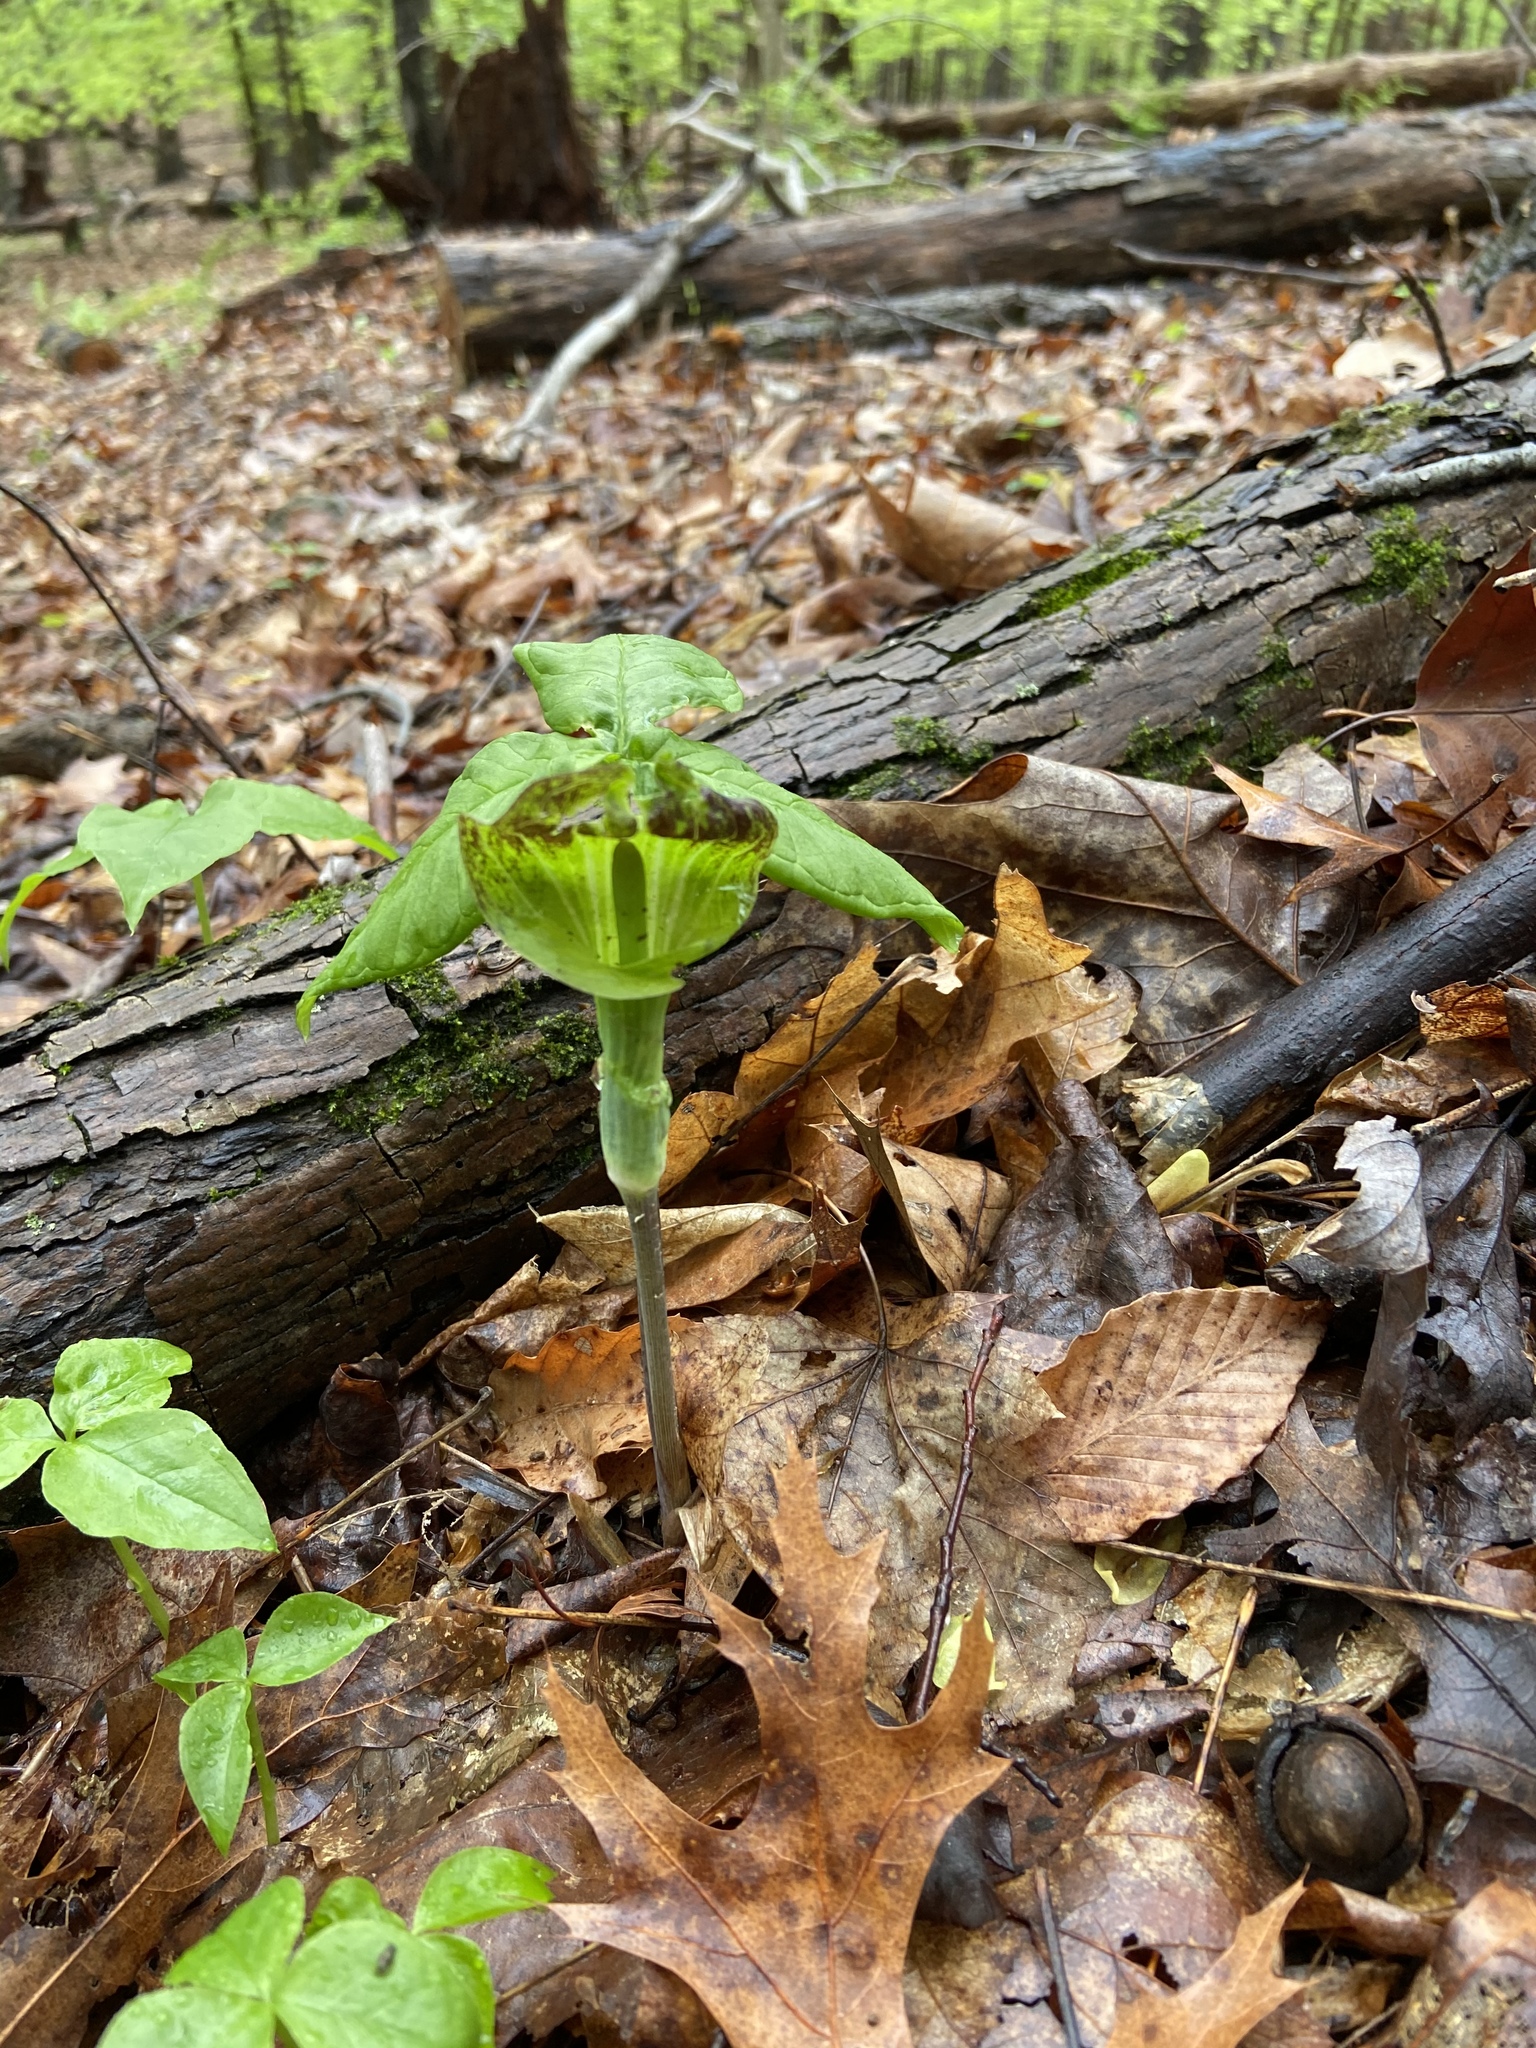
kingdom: Plantae
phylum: Tracheophyta
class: Liliopsida
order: Alismatales
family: Araceae
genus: Arisaema
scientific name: Arisaema triphyllum
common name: Jack-in-the-pulpit
